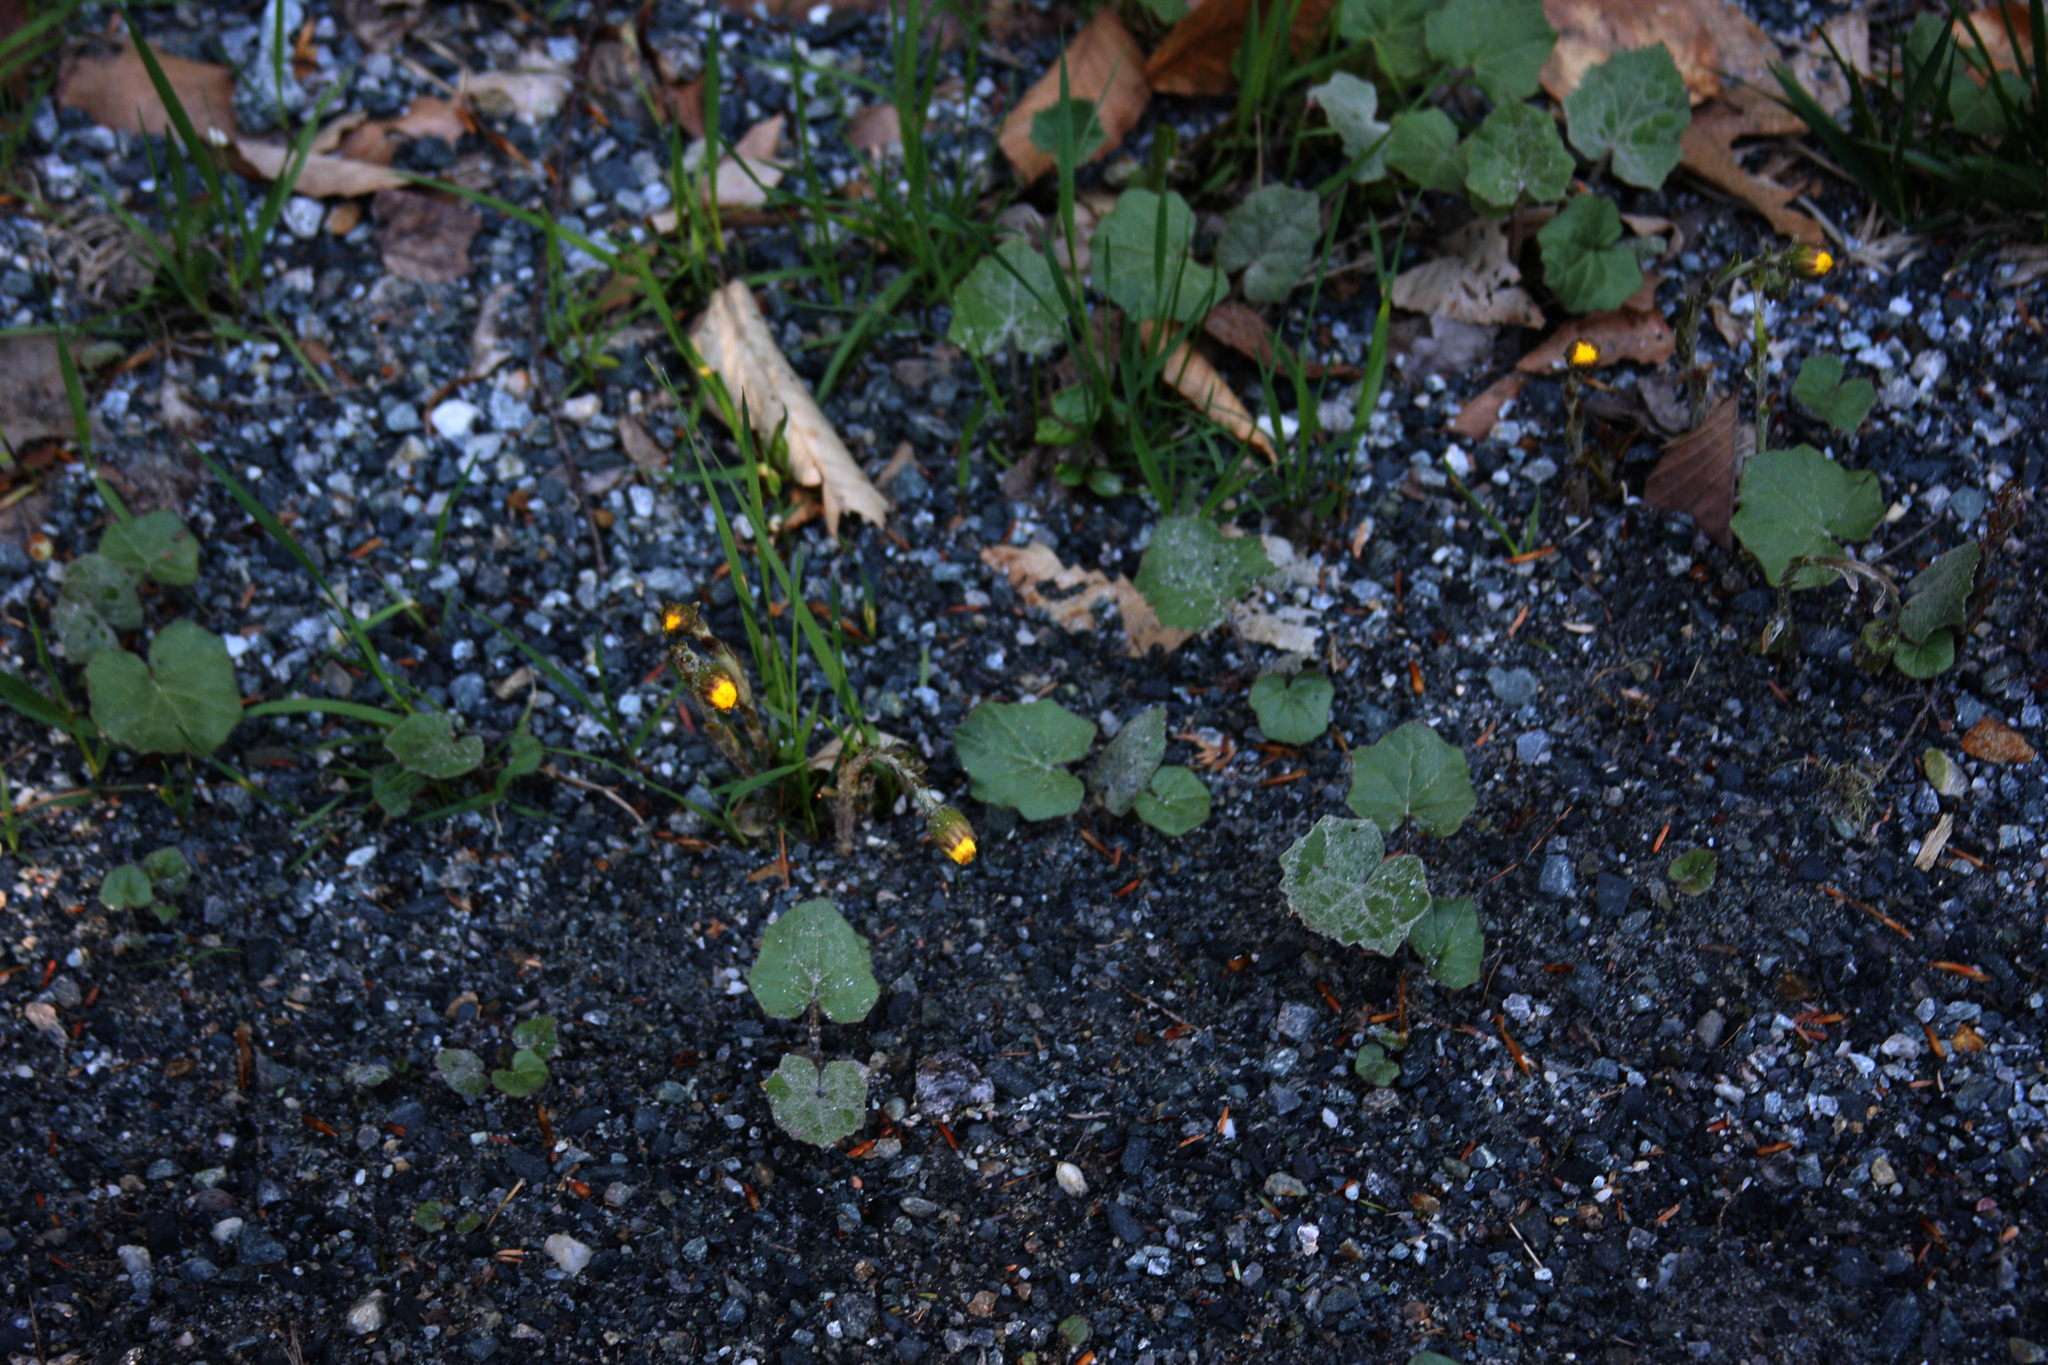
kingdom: Plantae
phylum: Tracheophyta
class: Magnoliopsida
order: Asterales
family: Asteraceae
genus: Tussilago
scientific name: Tussilago farfara
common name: Coltsfoot
